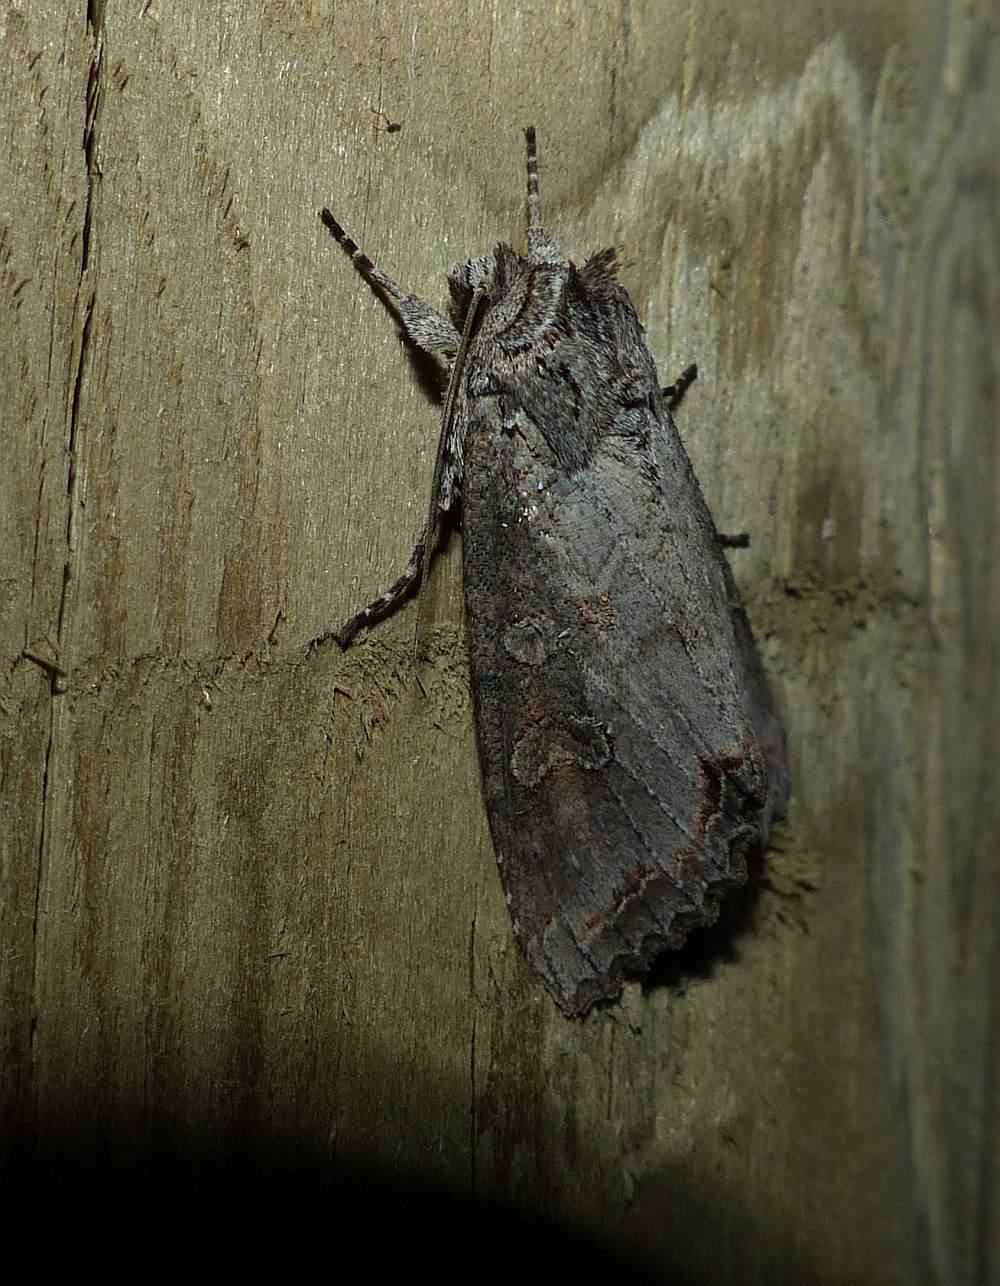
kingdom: Animalia
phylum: Arthropoda
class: Insecta
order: Lepidoptera
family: Noctuidae
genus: Polia
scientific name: Polia purpurissata
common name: Purple arches moth
